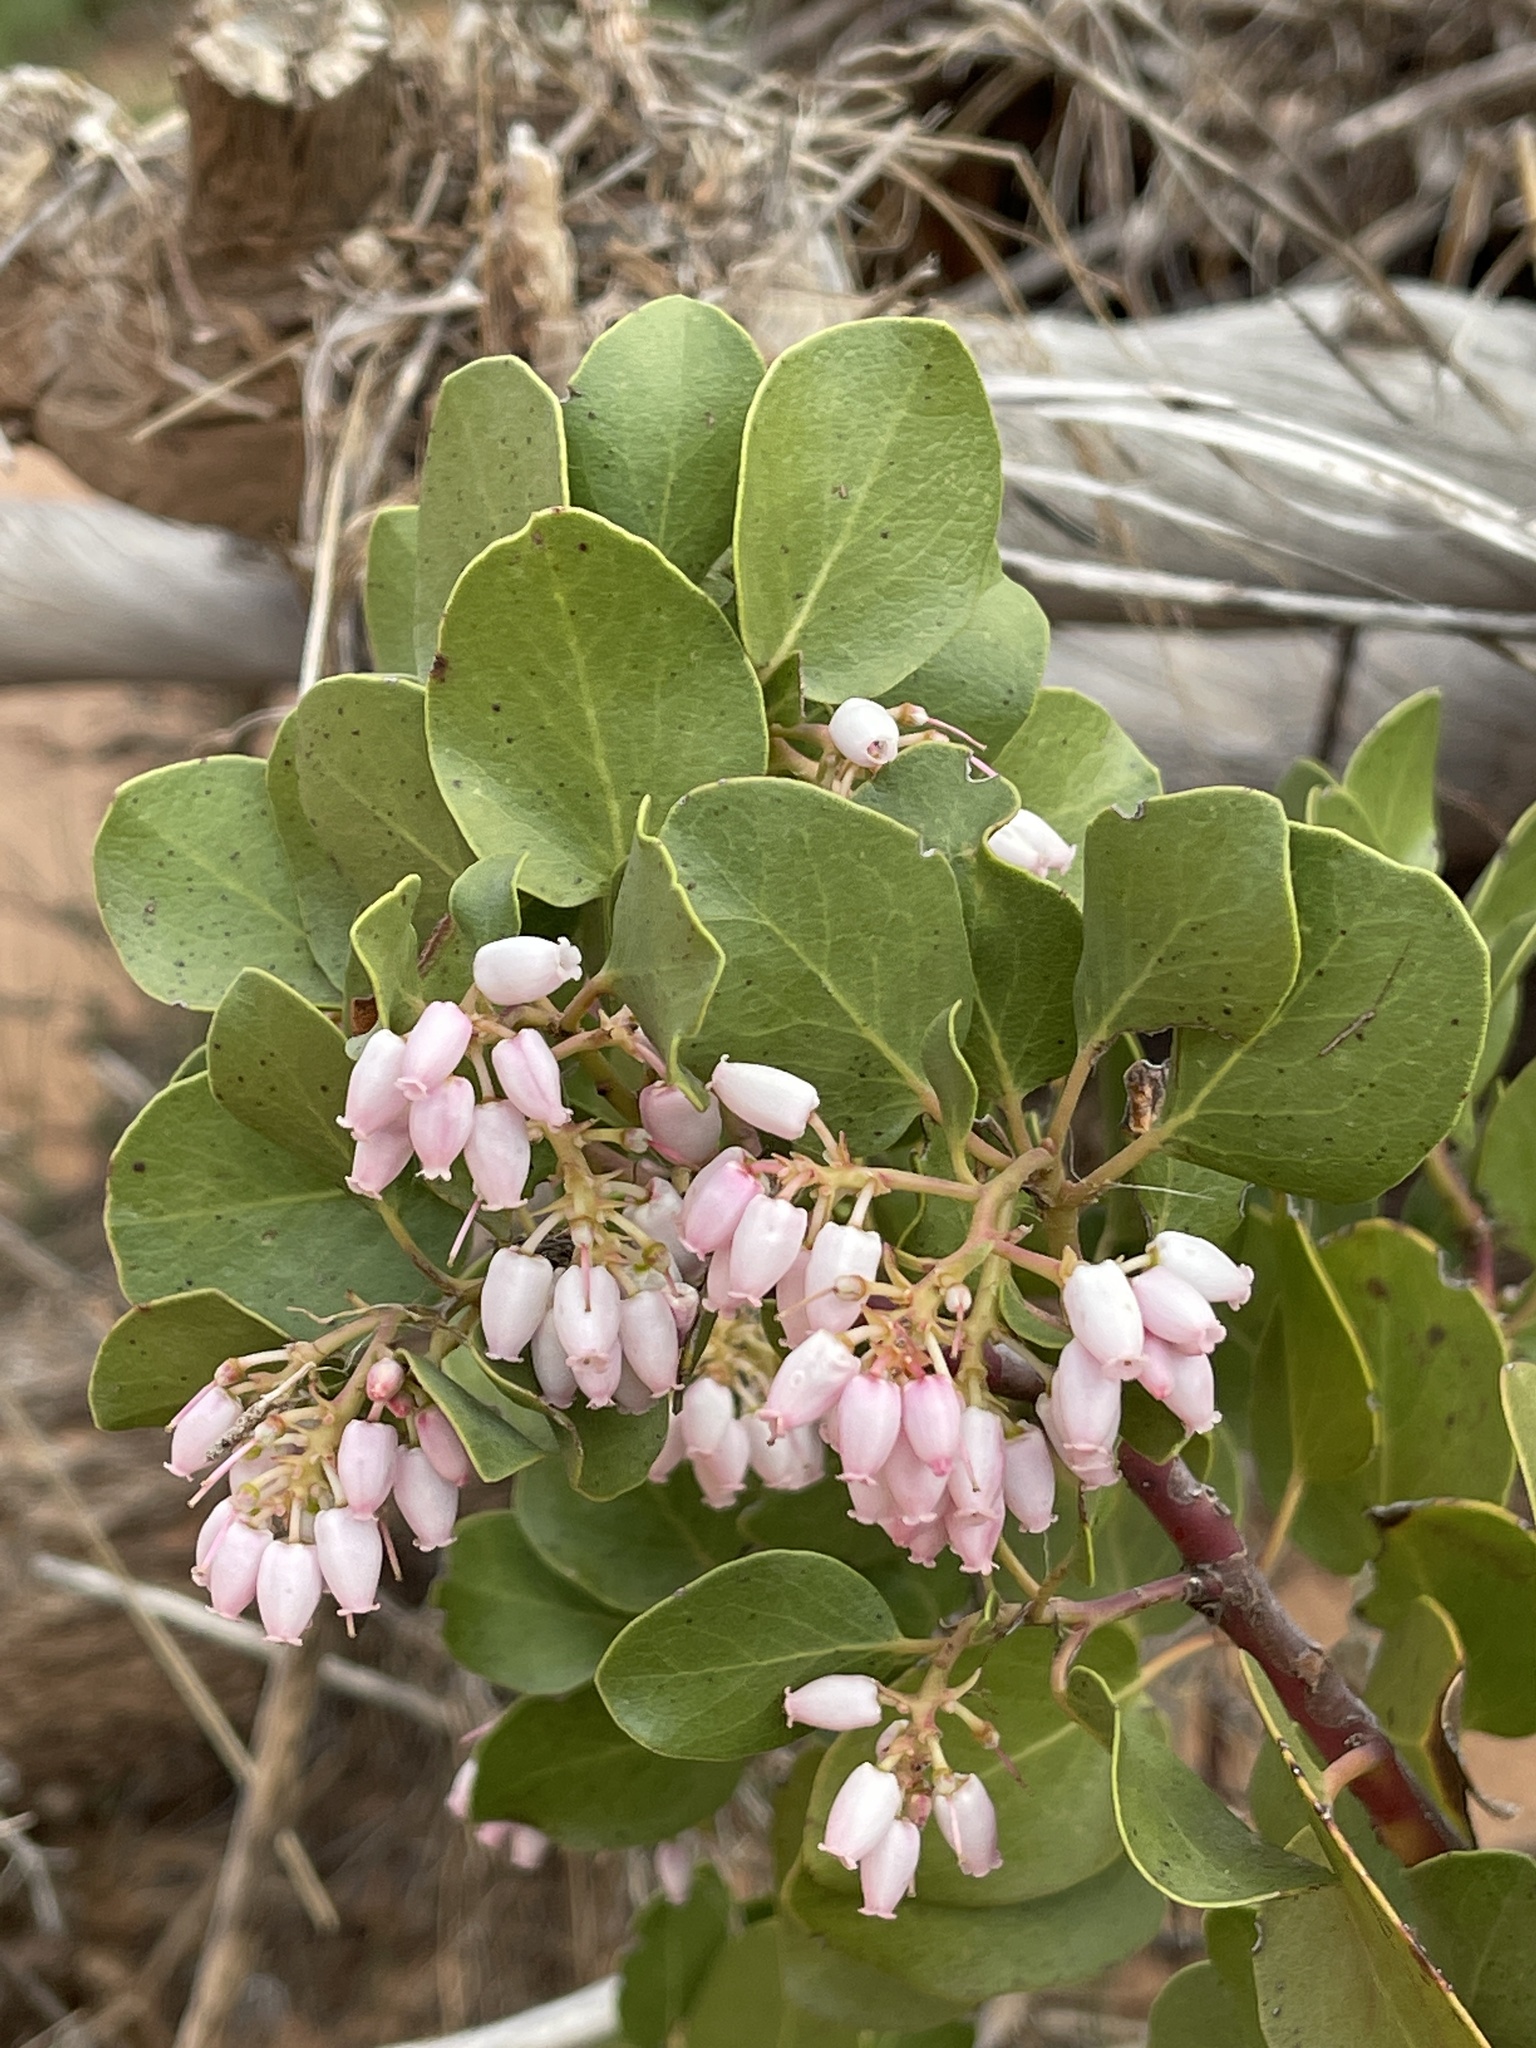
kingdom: Plantae
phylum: Tracheophyta
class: Magnoliopsida
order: Ericales
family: Ericaceae
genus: Arctostaphylos
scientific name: Arctostaphylos patula
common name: Green-leaf manzanita
